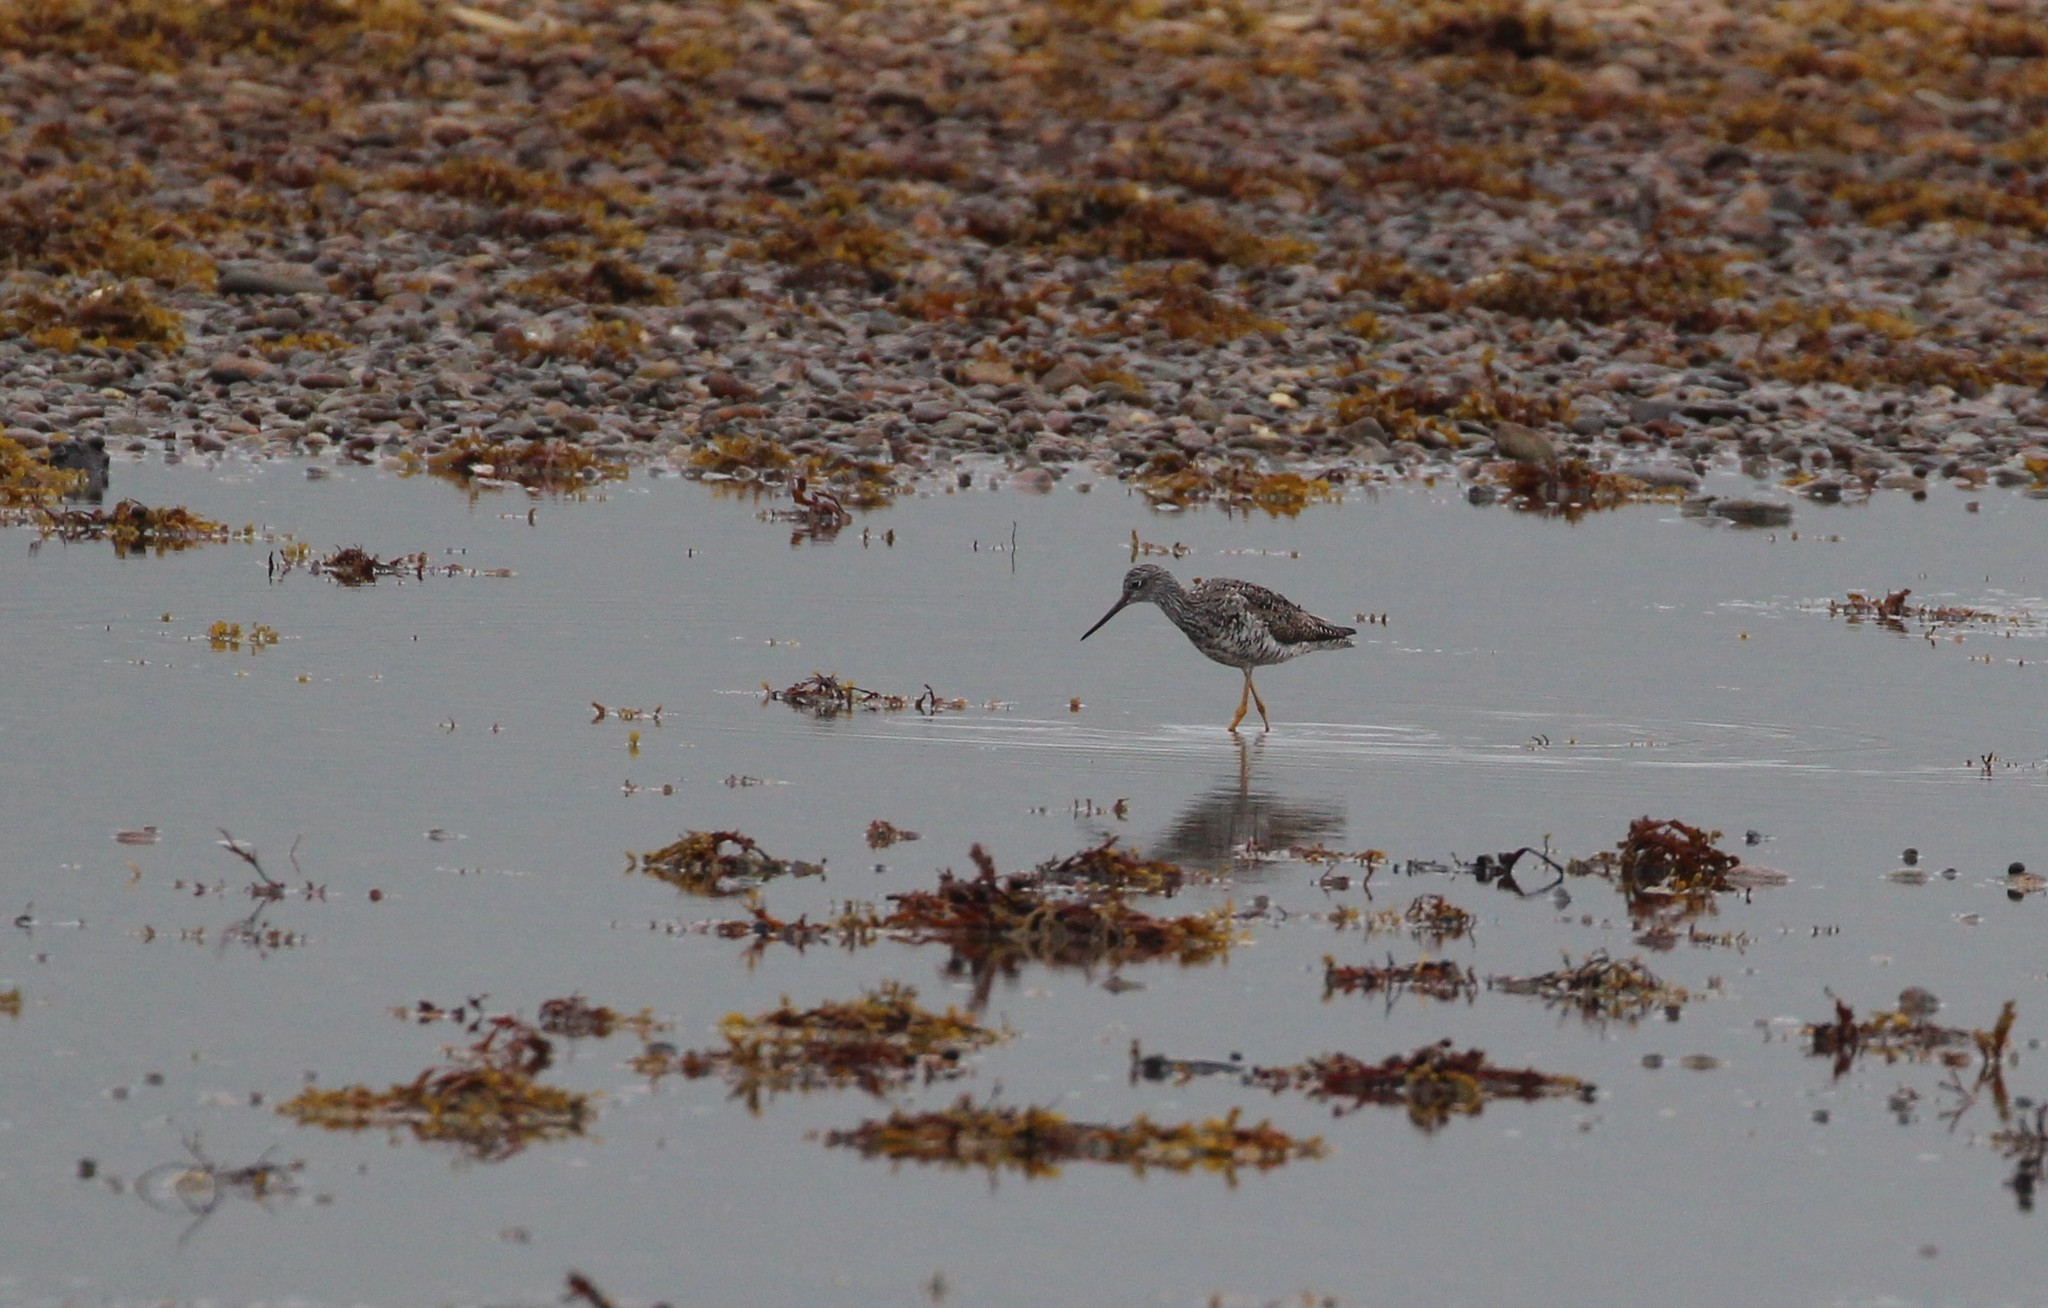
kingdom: Animalia
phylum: Chordata
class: Aves
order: Charadriiformes
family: Scolopacidae
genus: Tringa
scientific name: Tringa melanoleuca
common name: Greater yellowlegs
